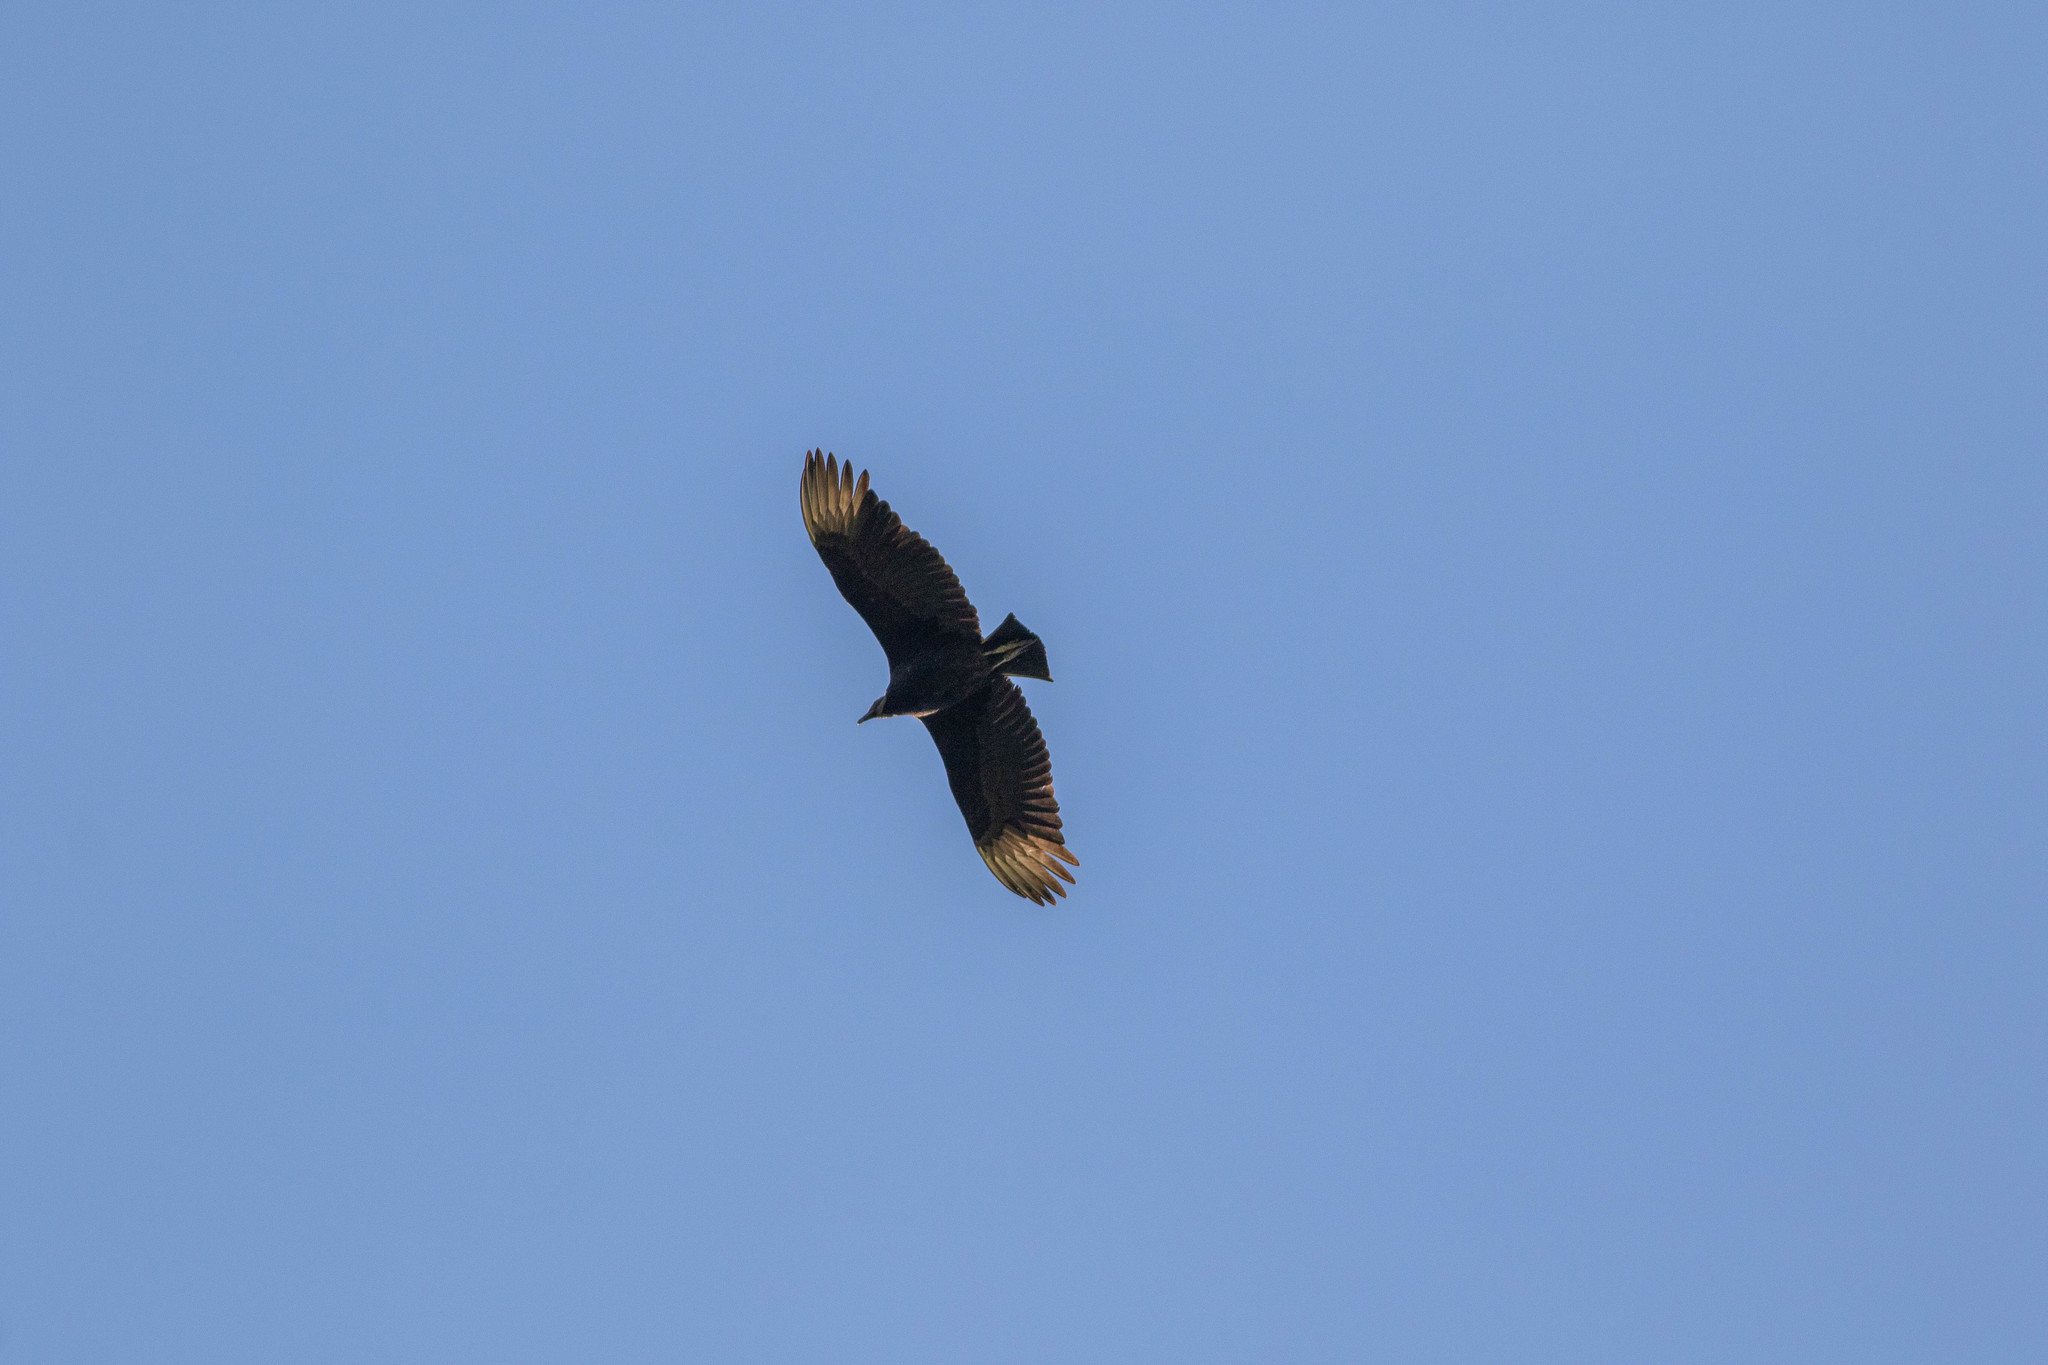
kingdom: Animalia
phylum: Chordata
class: Aves
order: Accipitriformes
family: Cathartidae
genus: Coragyps
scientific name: Coragyps atratus
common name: Black vulture
